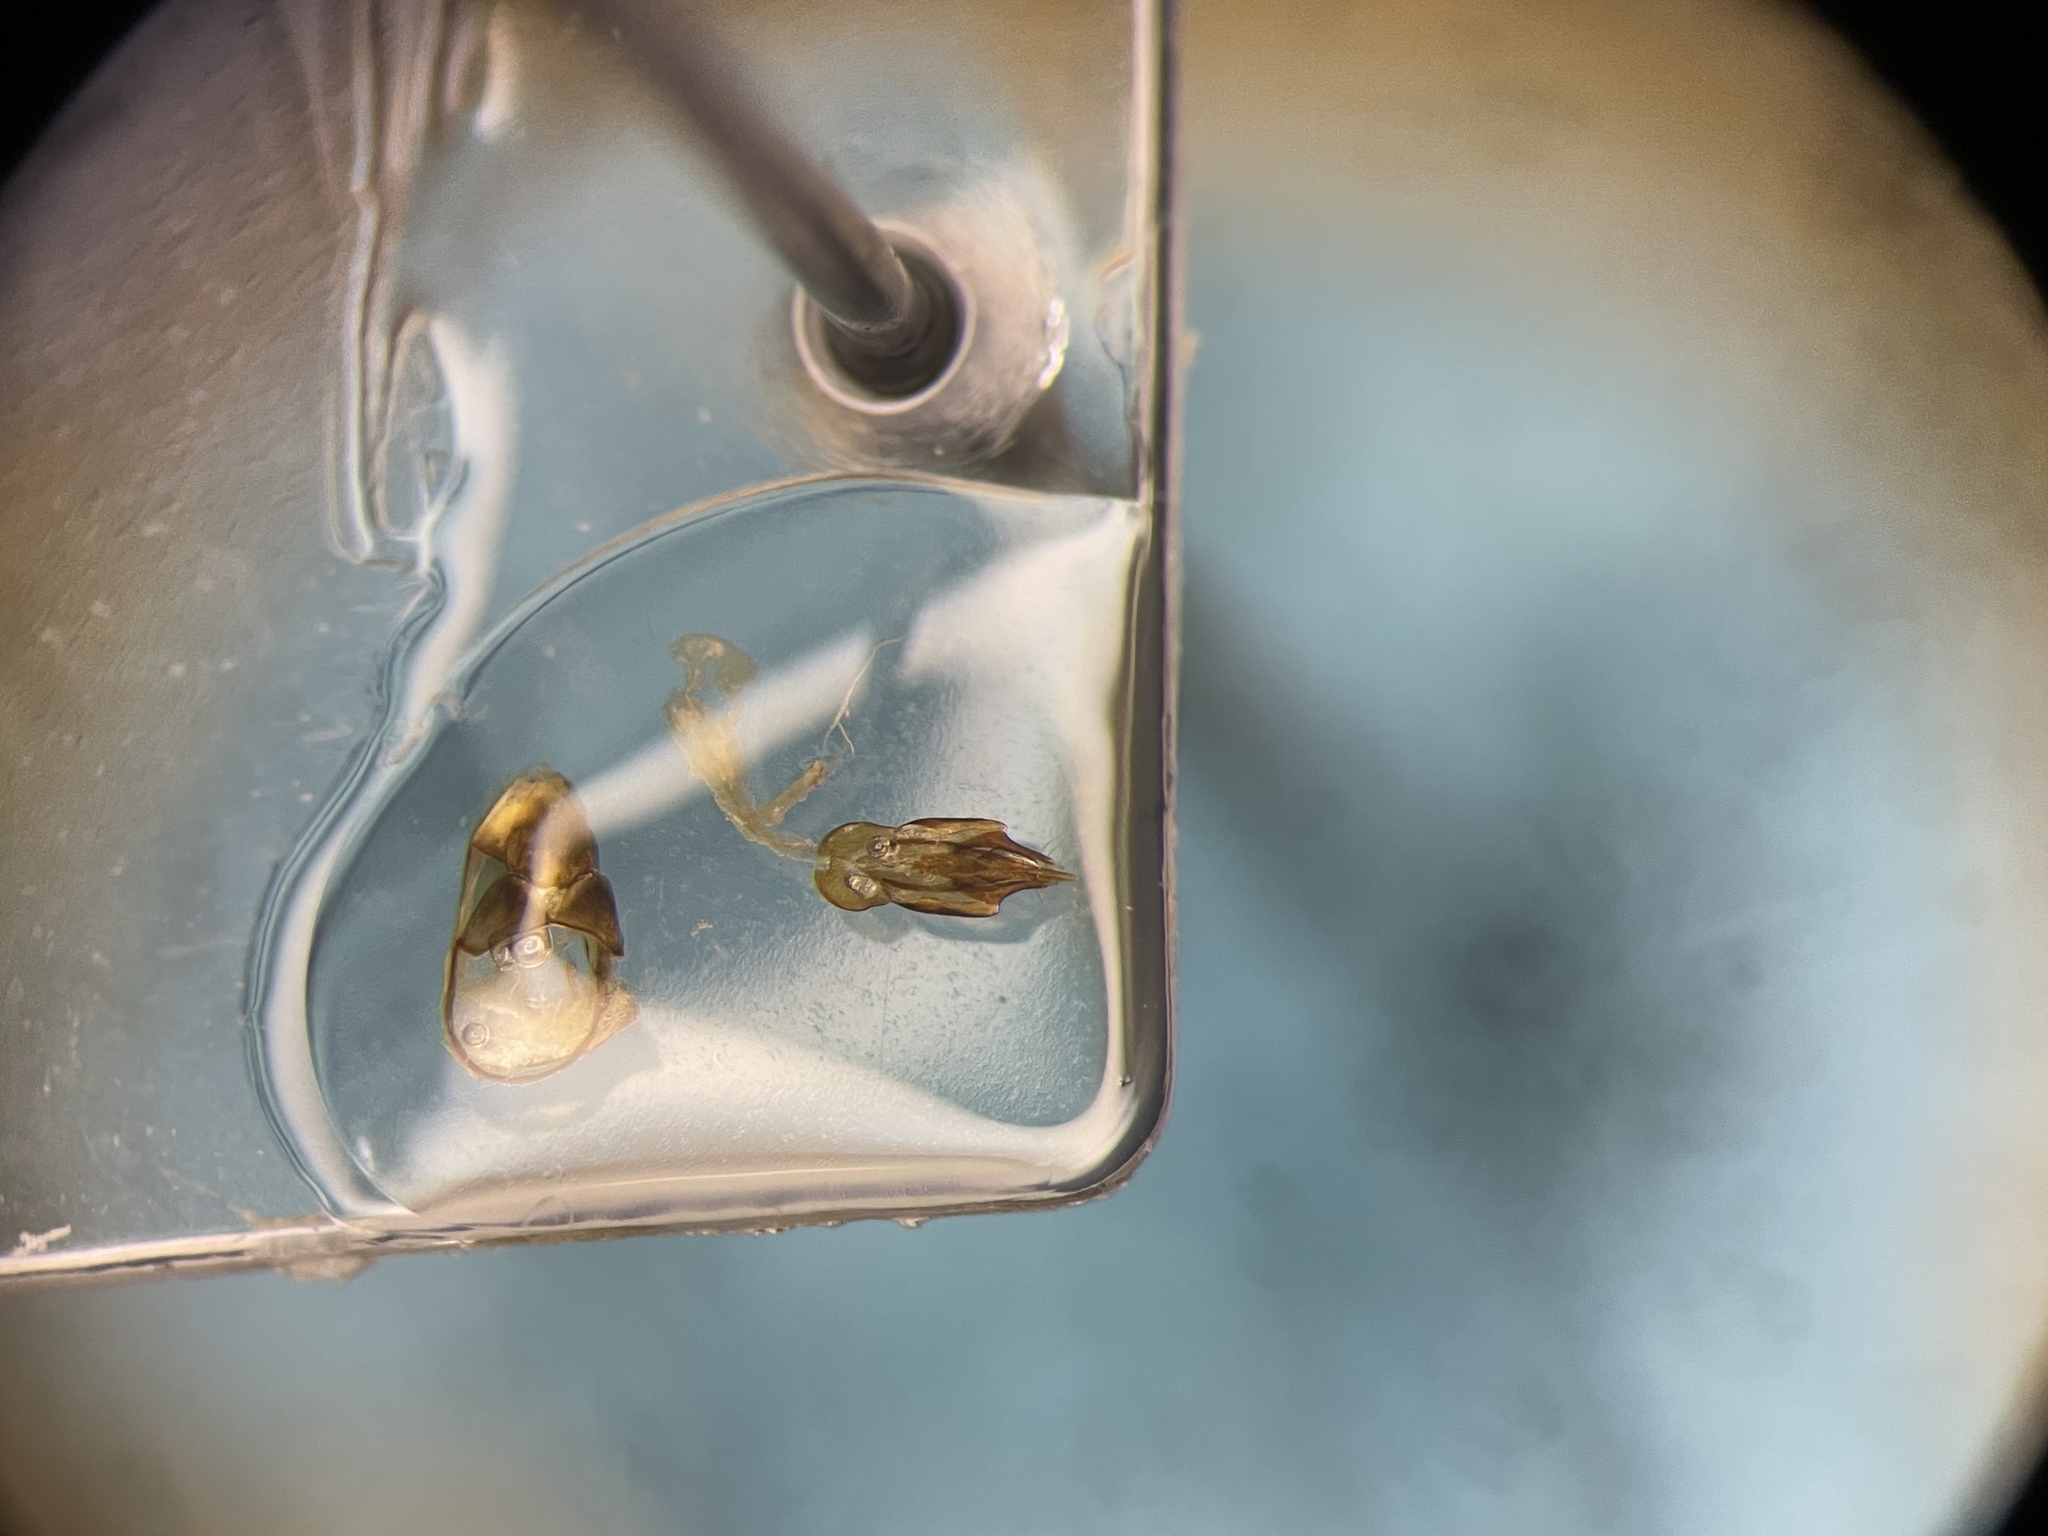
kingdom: Animalia
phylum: Arthropoda
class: Insecta
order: Coleoptera
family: Elateridae
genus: Paracardiophorus
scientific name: Paracardiophorus cardisce
